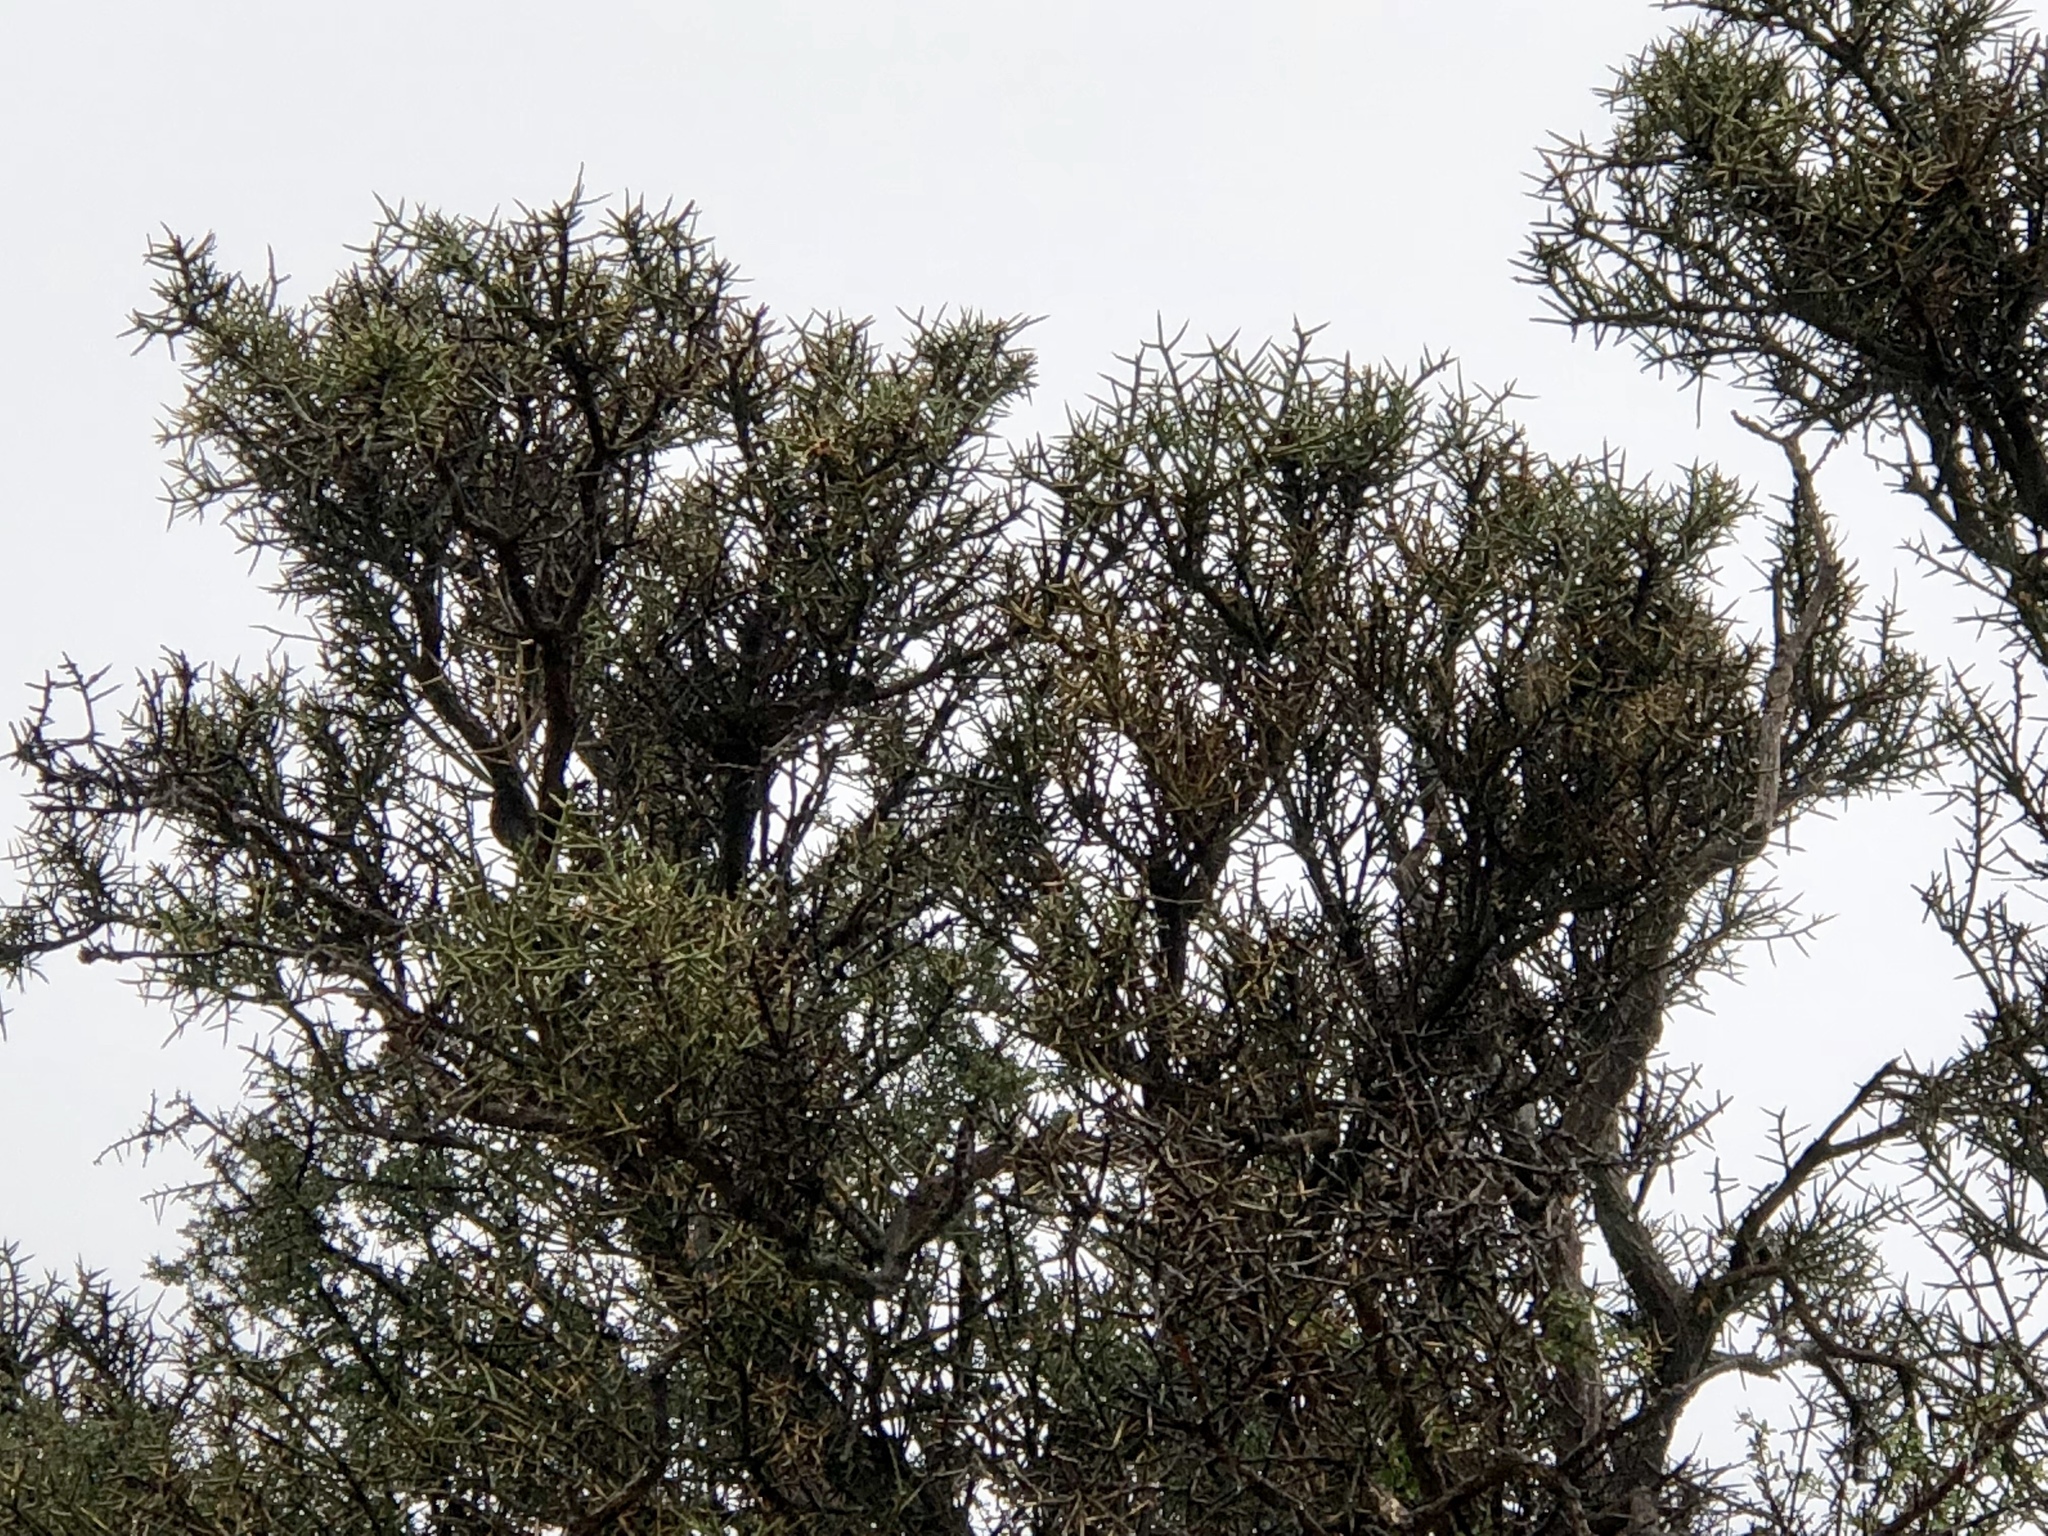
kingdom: Plantae
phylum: Tracheophyta
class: Magnoliopsida
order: Brassicales
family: Koeberliniaceae
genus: Koeberlinia
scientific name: Koeberlinia spinosa
